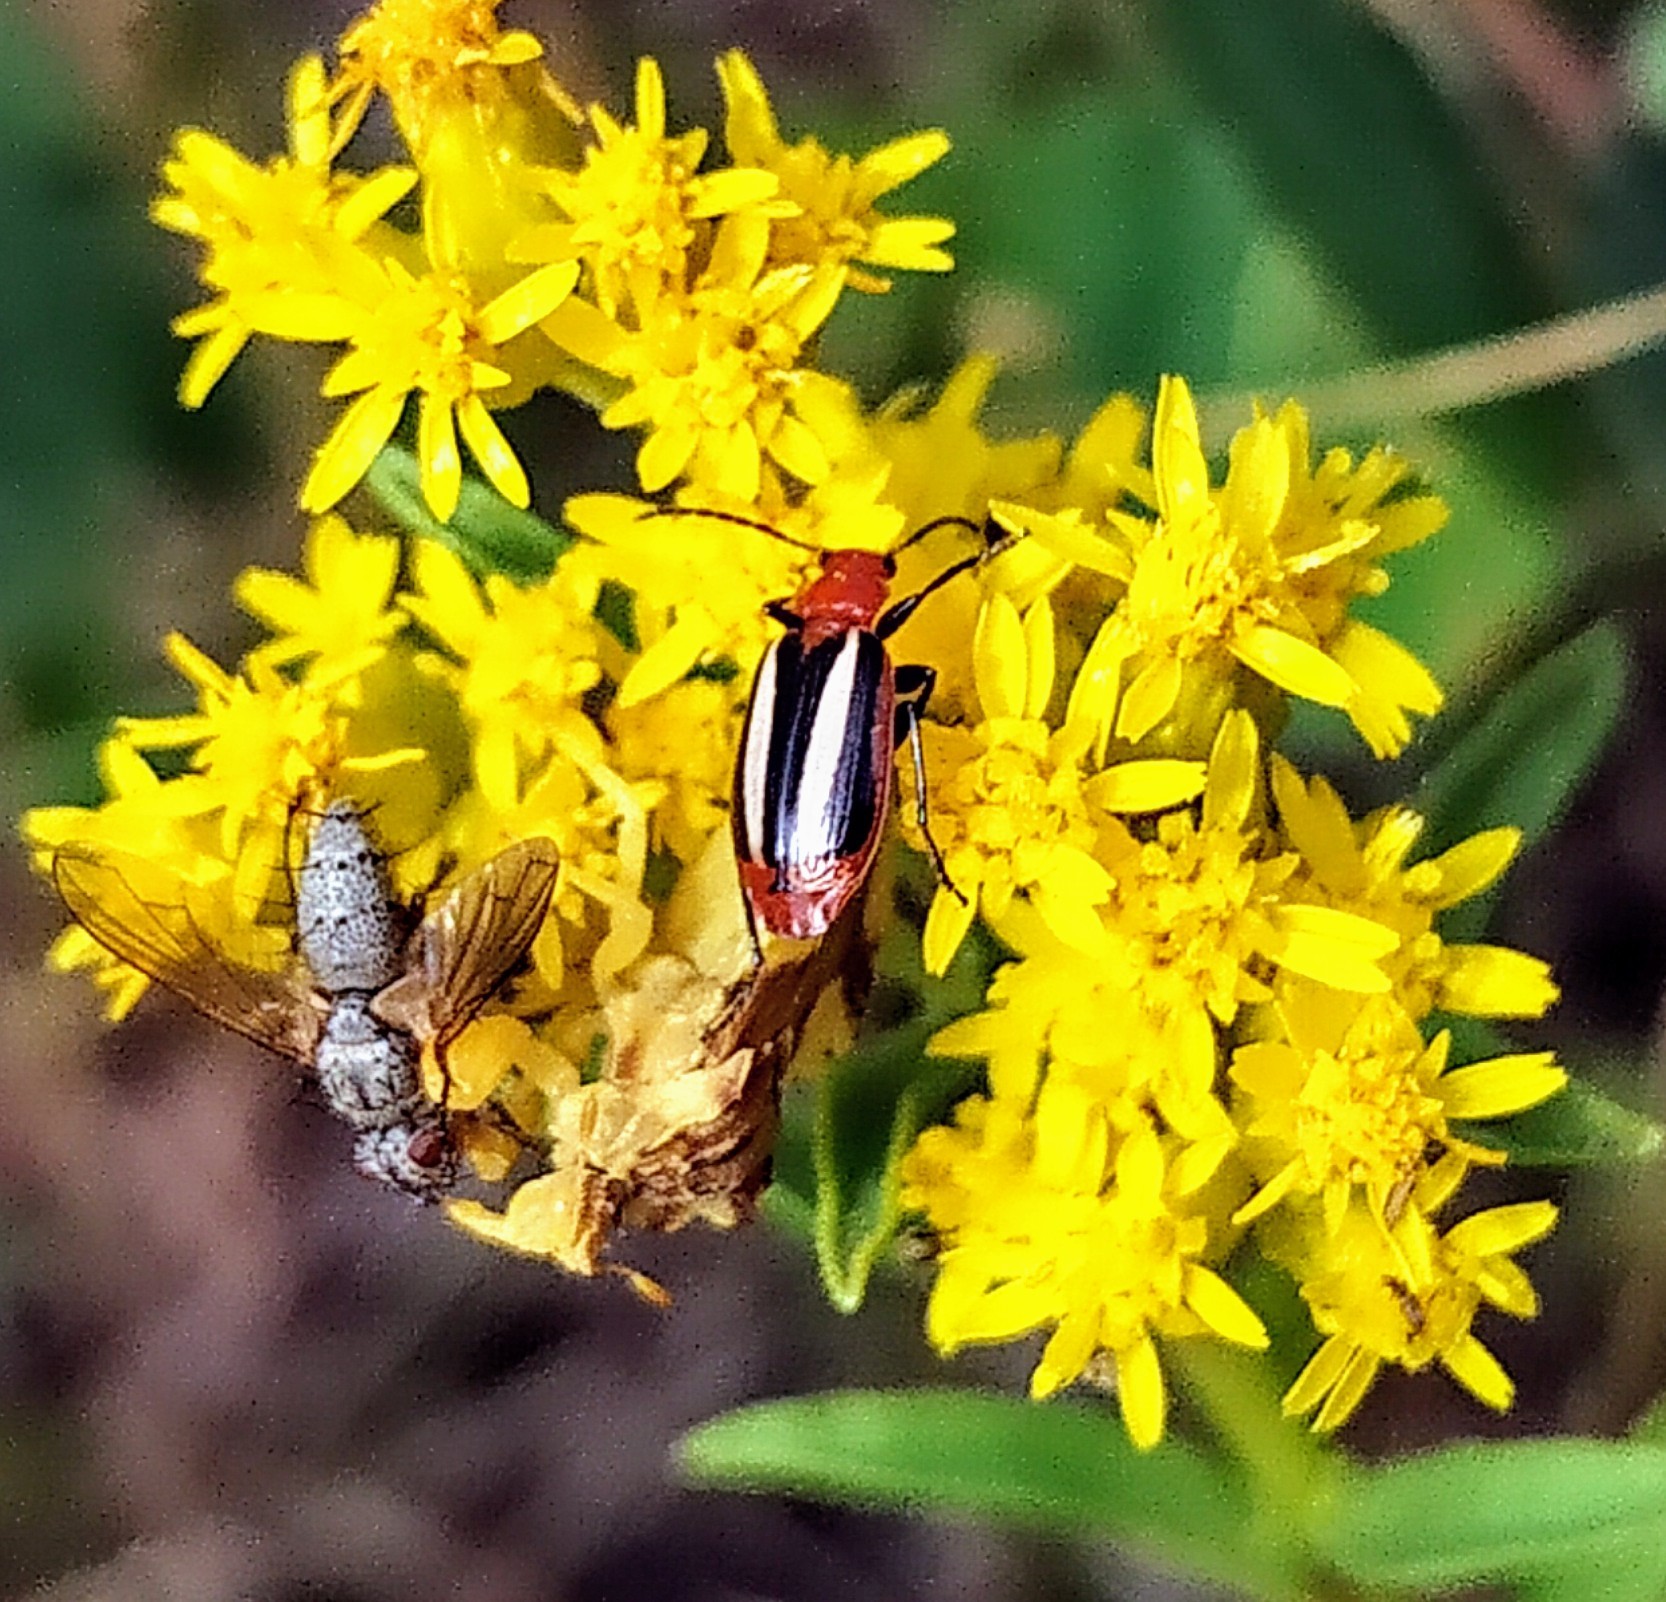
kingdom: Animalia
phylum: Arthropoda
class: Insecta
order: Coleoptera
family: Carabidae
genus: Lebia
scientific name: Lebia vittata
